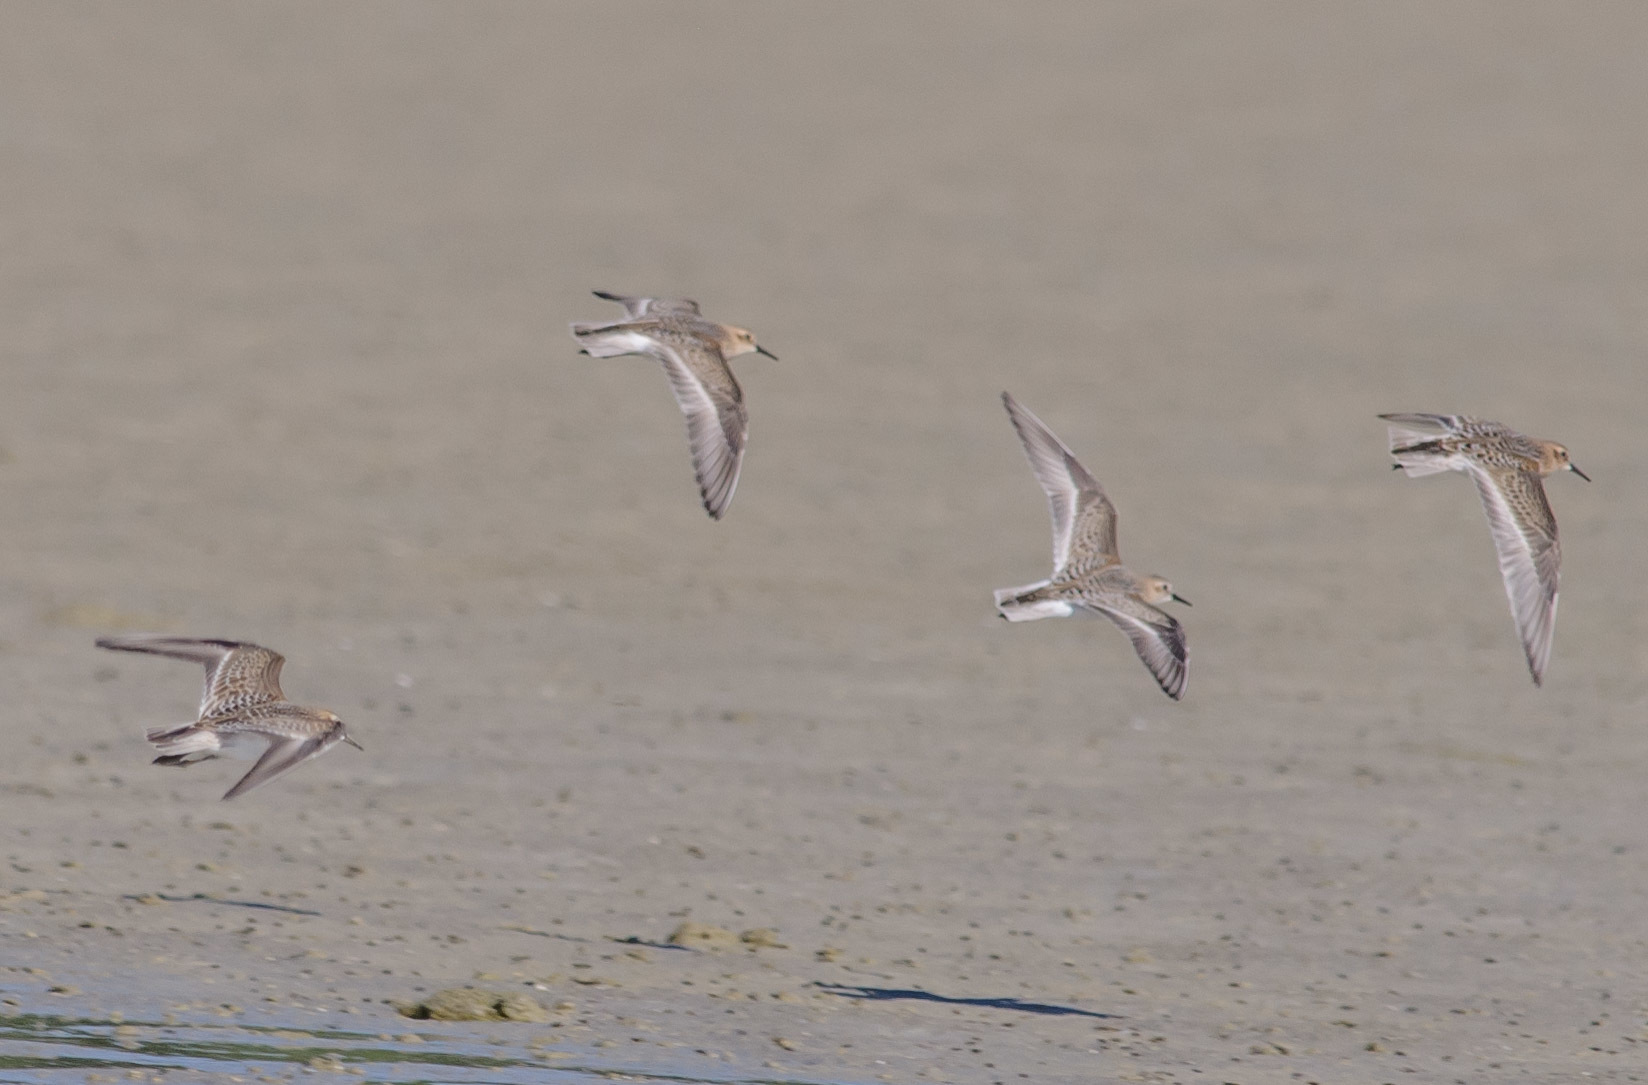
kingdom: Animalia
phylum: Chordata
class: Aves
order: Charadriiformes
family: Scolopacidae
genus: Calidris
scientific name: Calidris bairdii
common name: Baird's sandpiper
